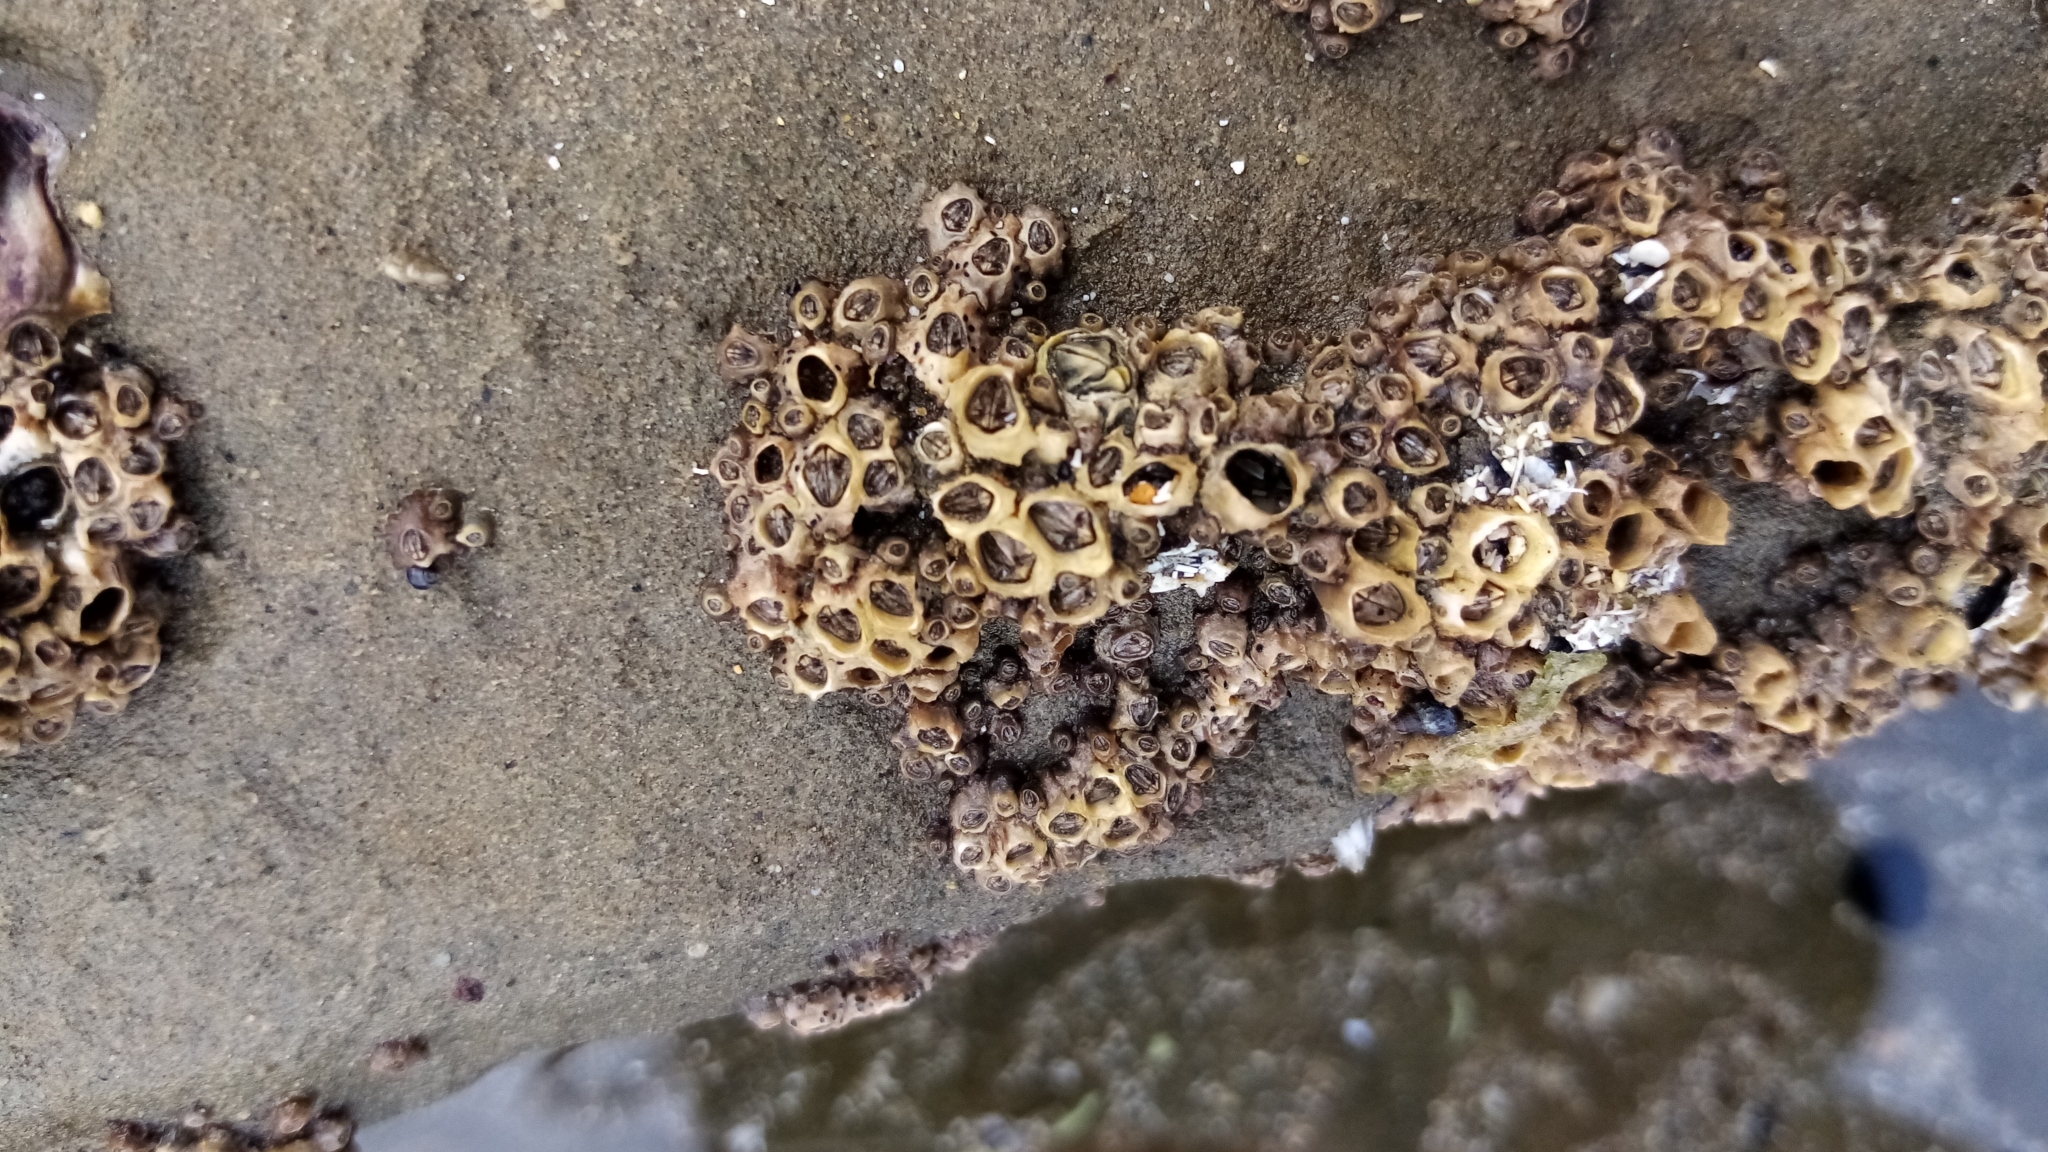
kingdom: Animalia
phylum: Arthropoda
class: Maxillopoda
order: Sessilia
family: Chthamalidae
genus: Chamaesipho
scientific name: Chamaesipho columna
